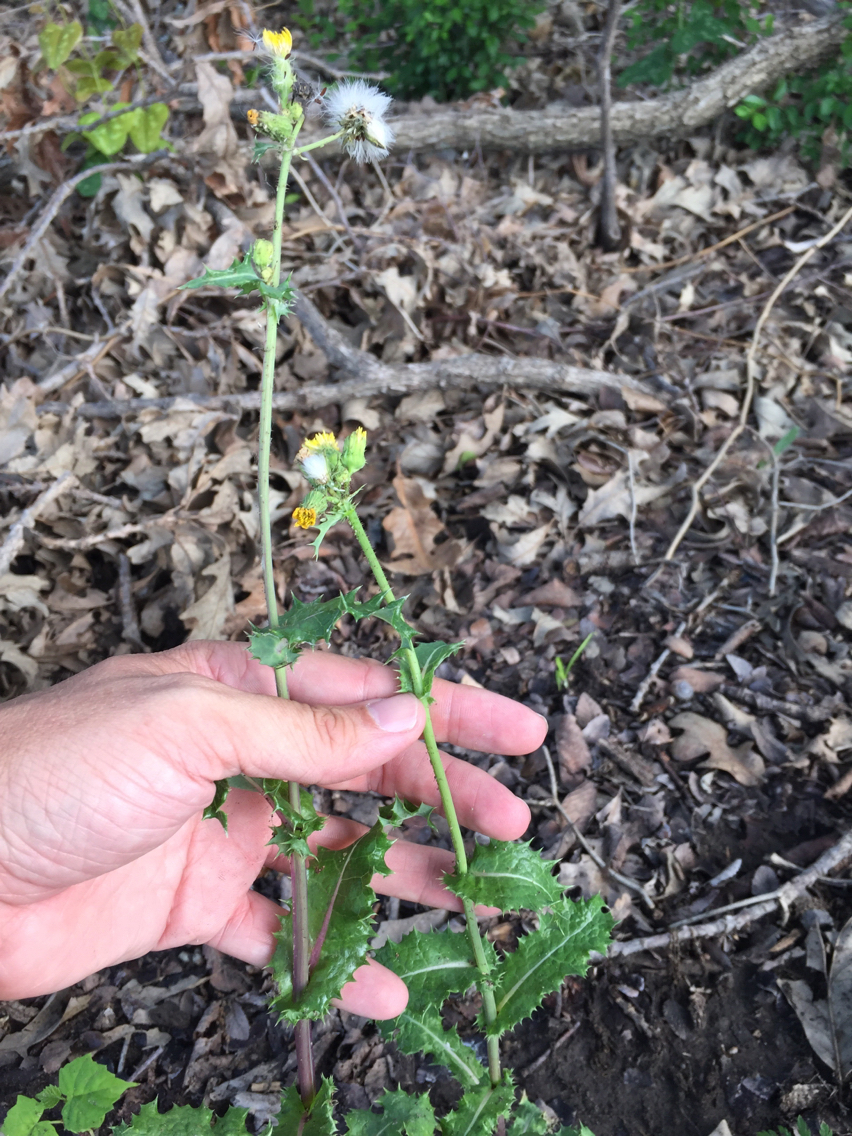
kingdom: Plantae
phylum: Tracheophyta
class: Magnoliopsida
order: Asterales
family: Asteraceae
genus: Sonchus
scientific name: Sonchus asper
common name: Prickly sow-thistle
